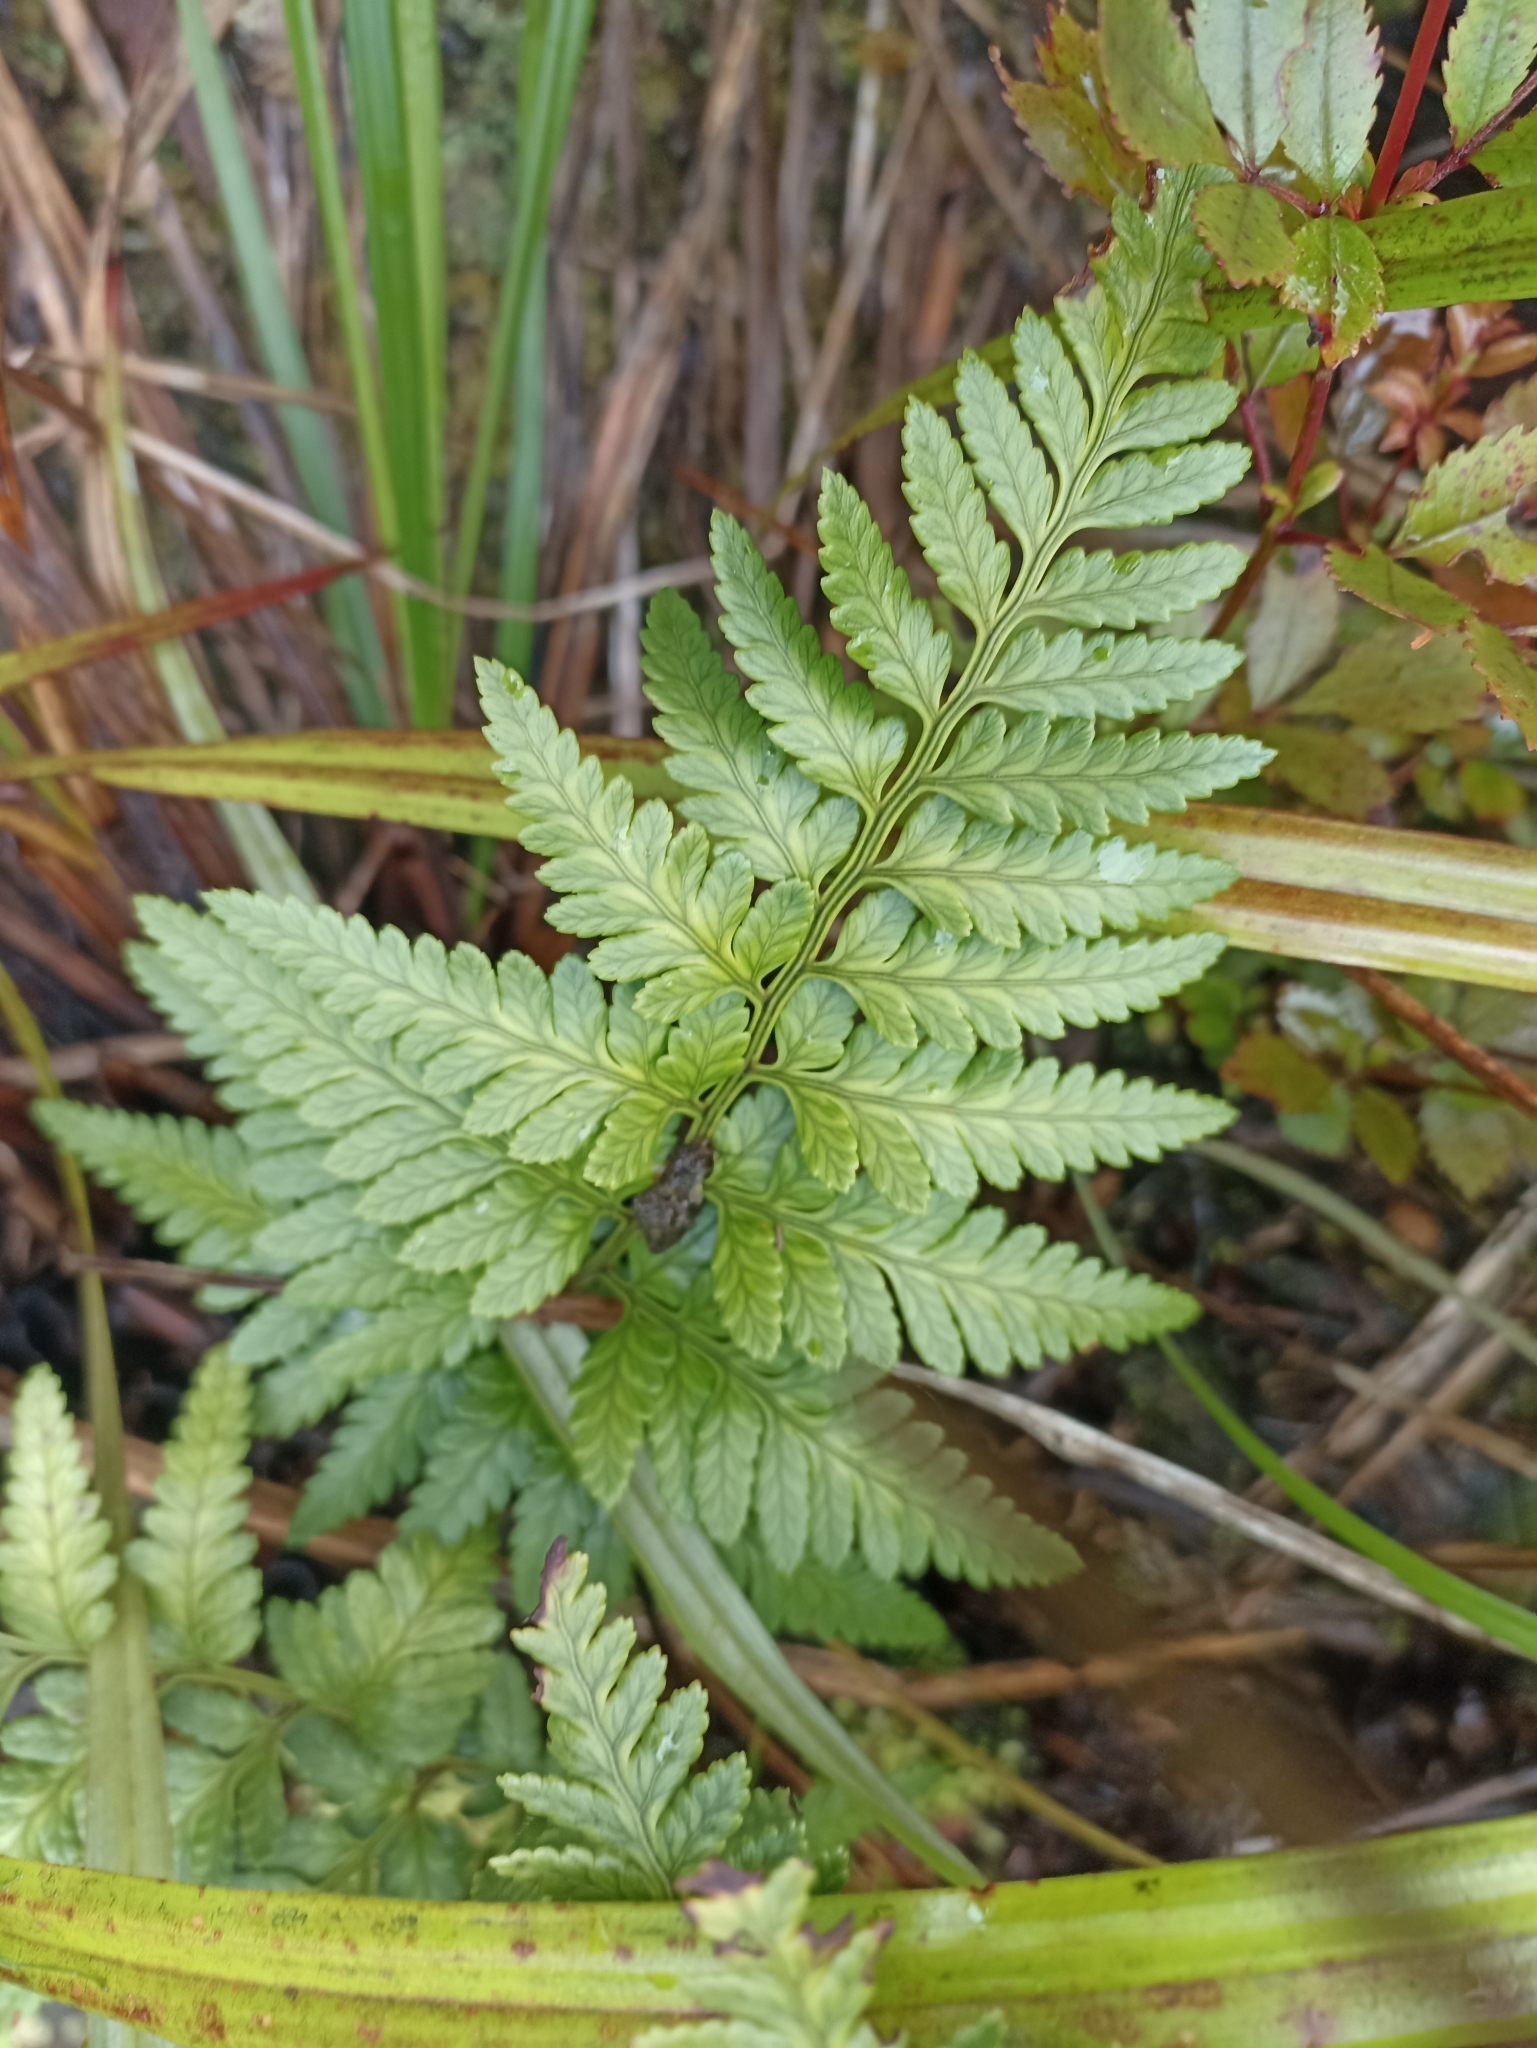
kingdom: Plantae
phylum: Tracheophyta
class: Polypodiopsida
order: Polypodiales
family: Dryopteridaceae
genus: Rumohra
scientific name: Rumohra adiantiformis
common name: Leather fern
